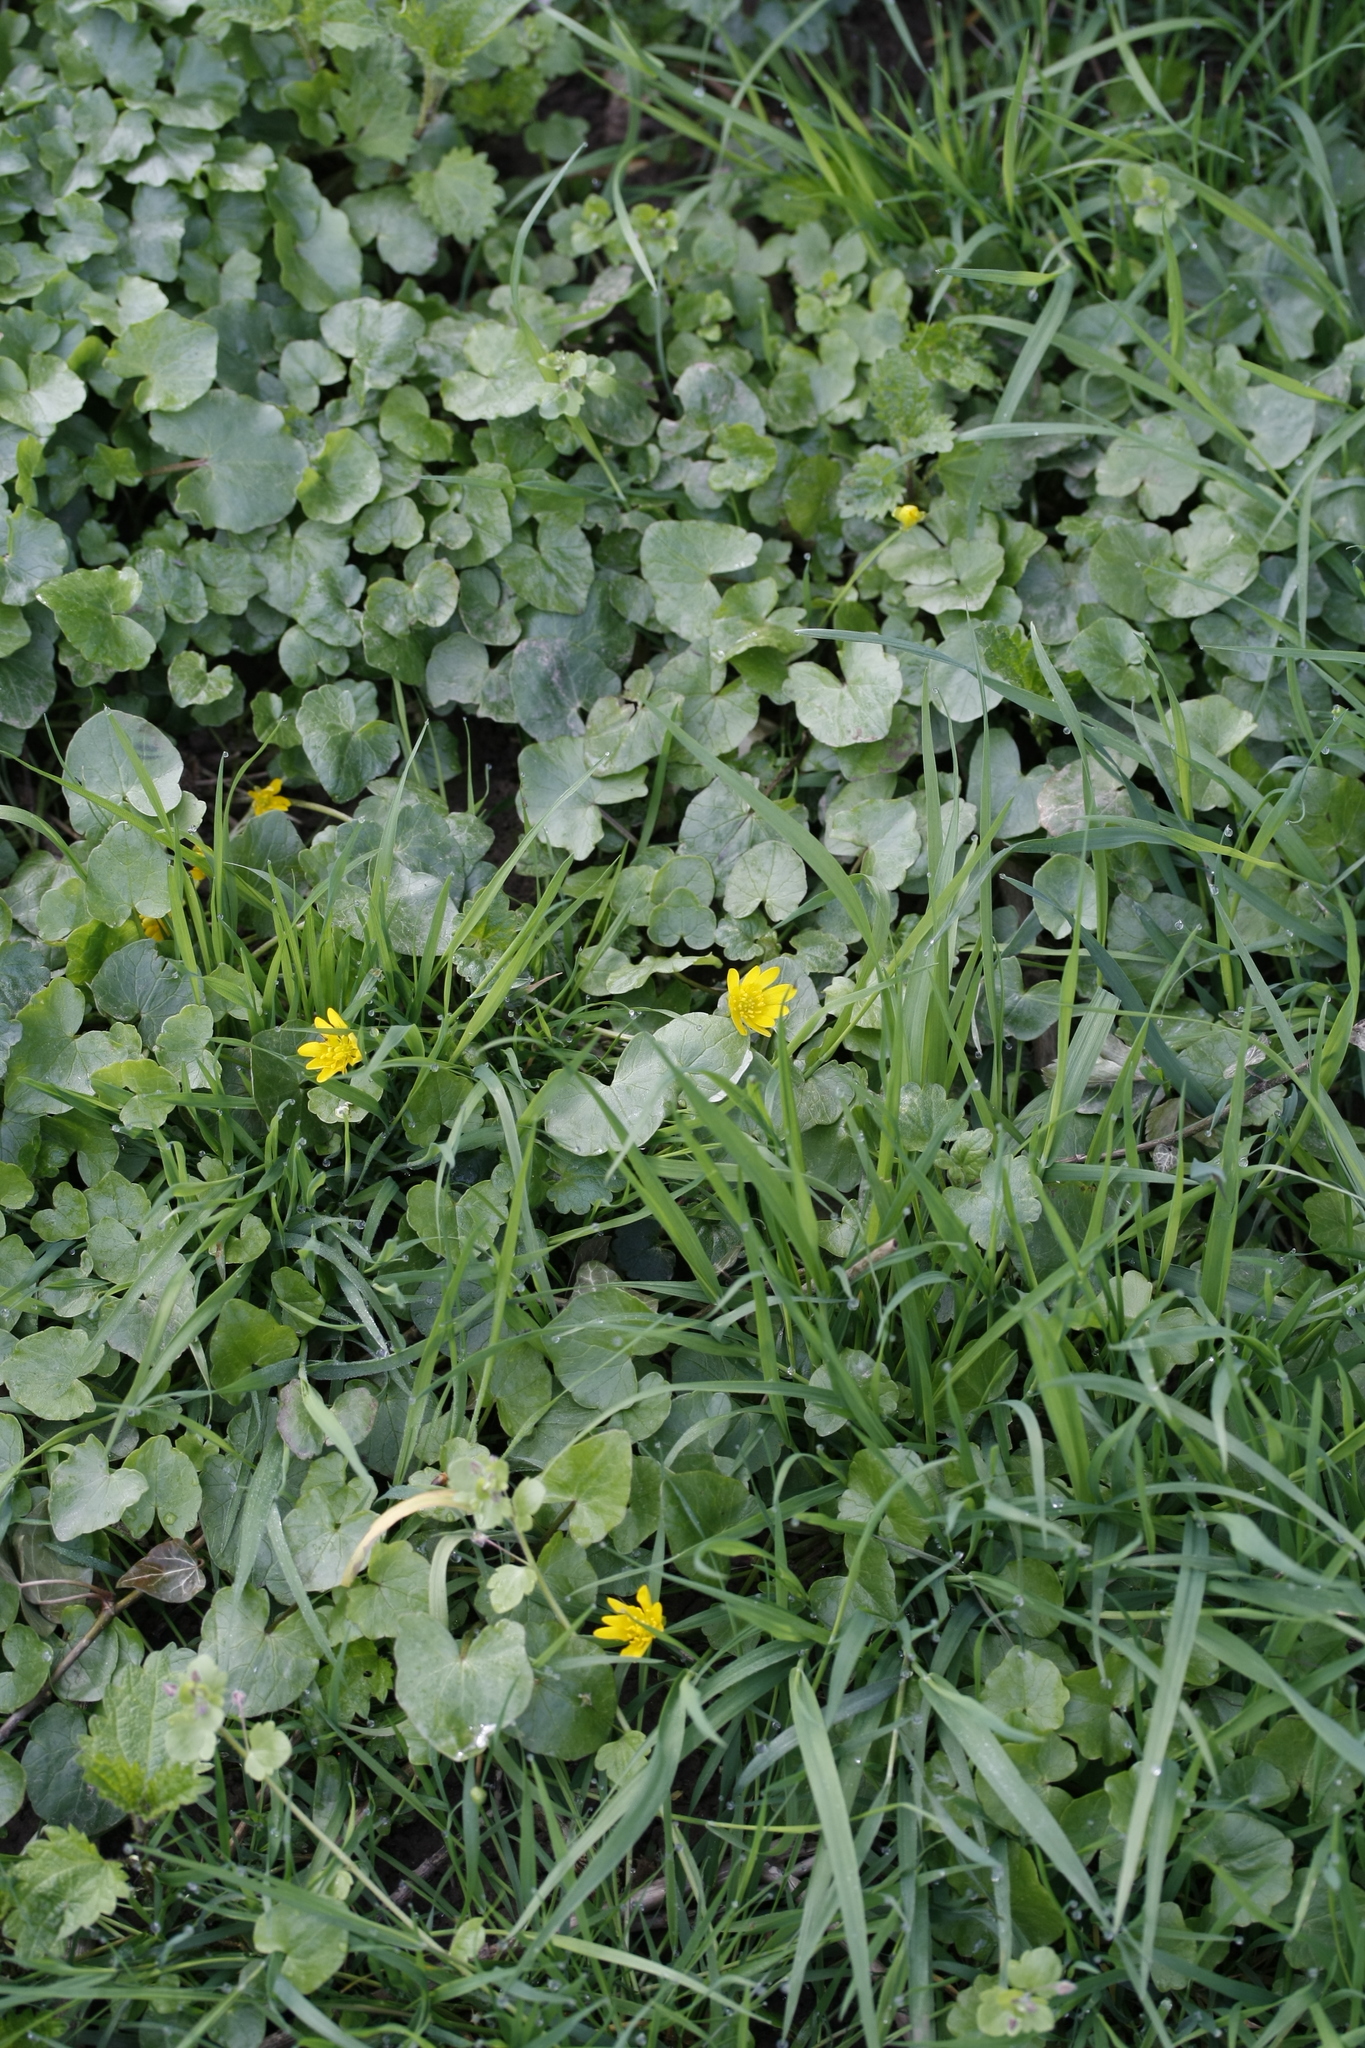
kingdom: Plantae
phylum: Tracheophyta
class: Magnoliopsida
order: Ranunculales
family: Ranunculaceae
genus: Ficaria
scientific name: Ficaria verna
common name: Lesser celandine
